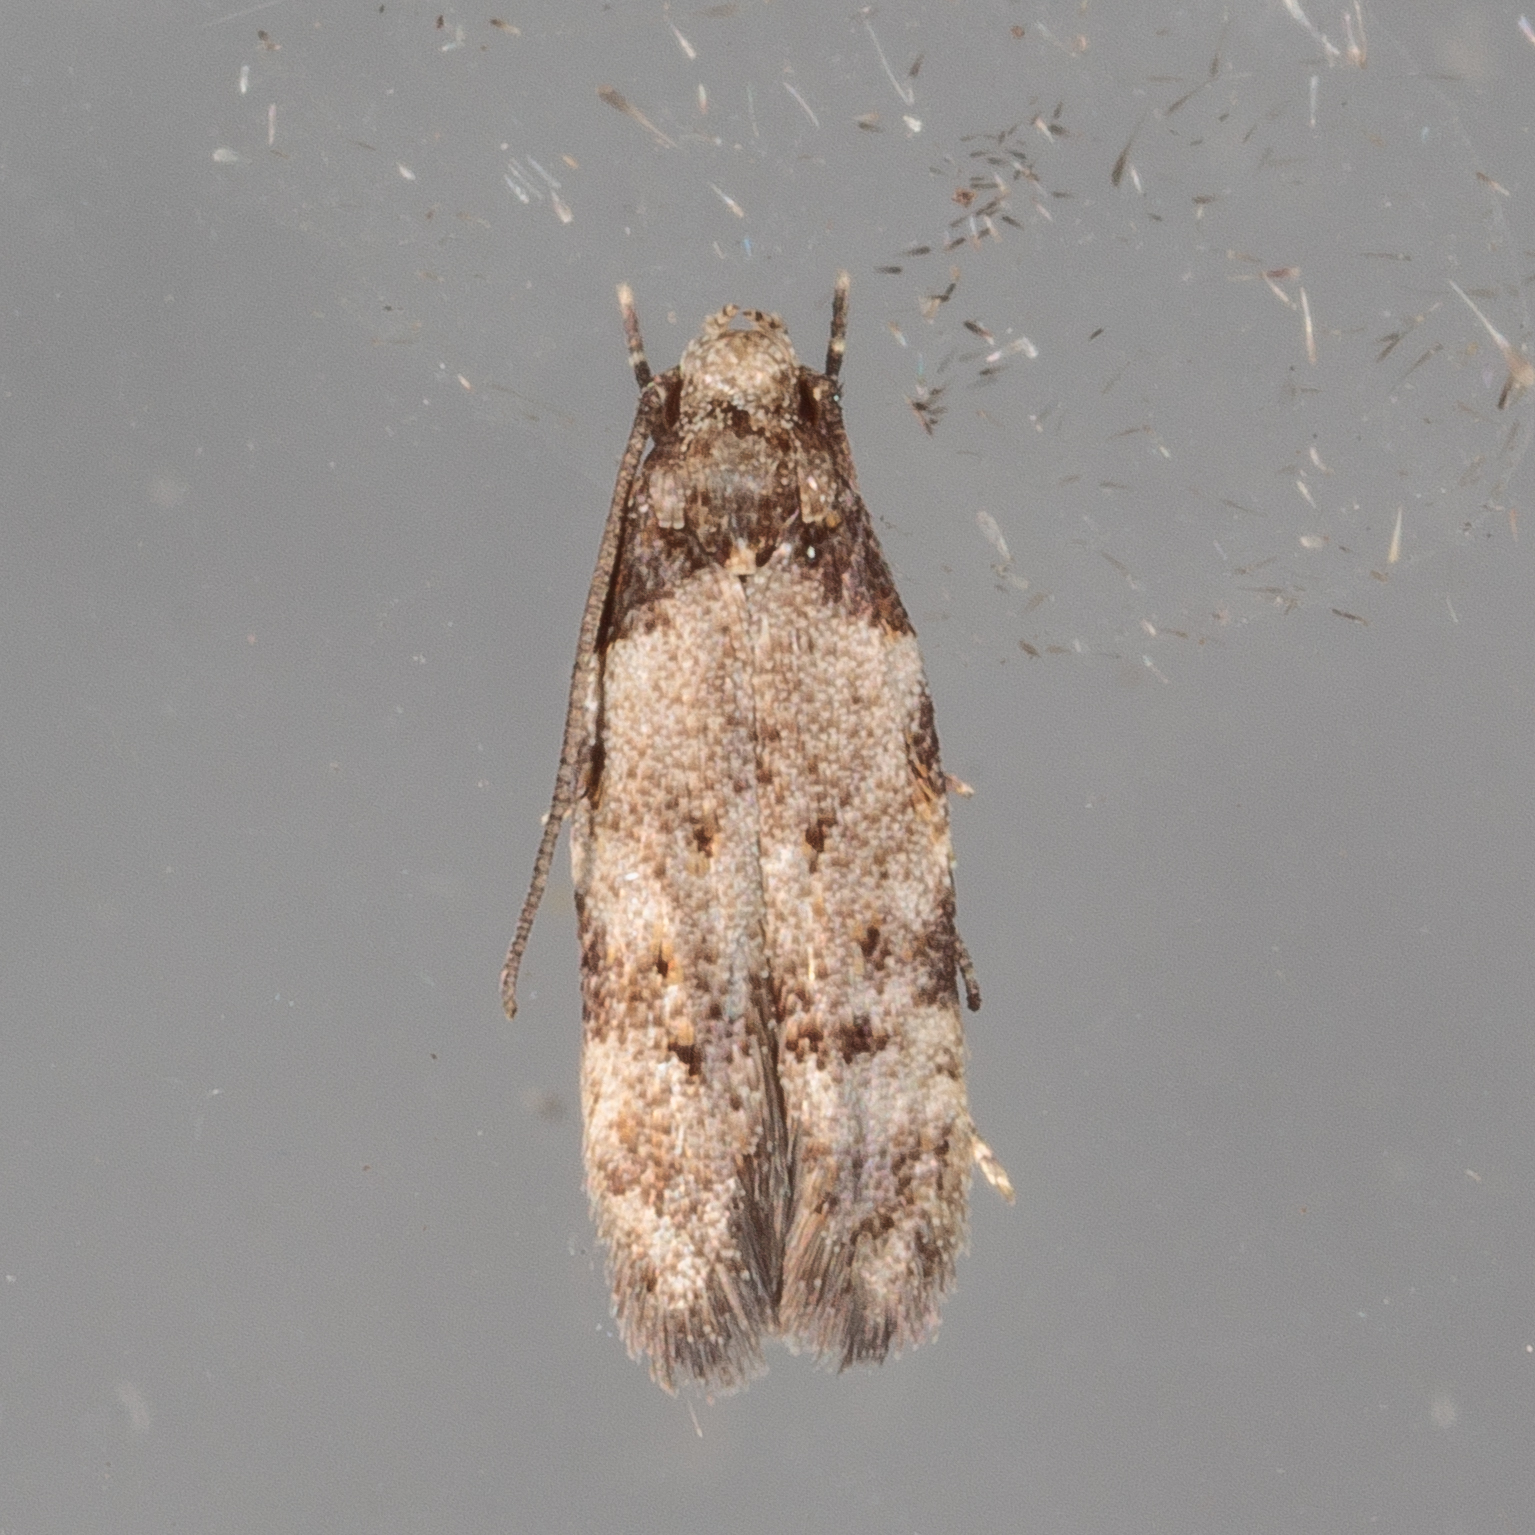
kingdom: Animalia
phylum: Arthropoda
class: Insecta
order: Lepidoptera
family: Autostichidae
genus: Taygete
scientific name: Taygete attributella
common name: Triangle-marked twirler moth
